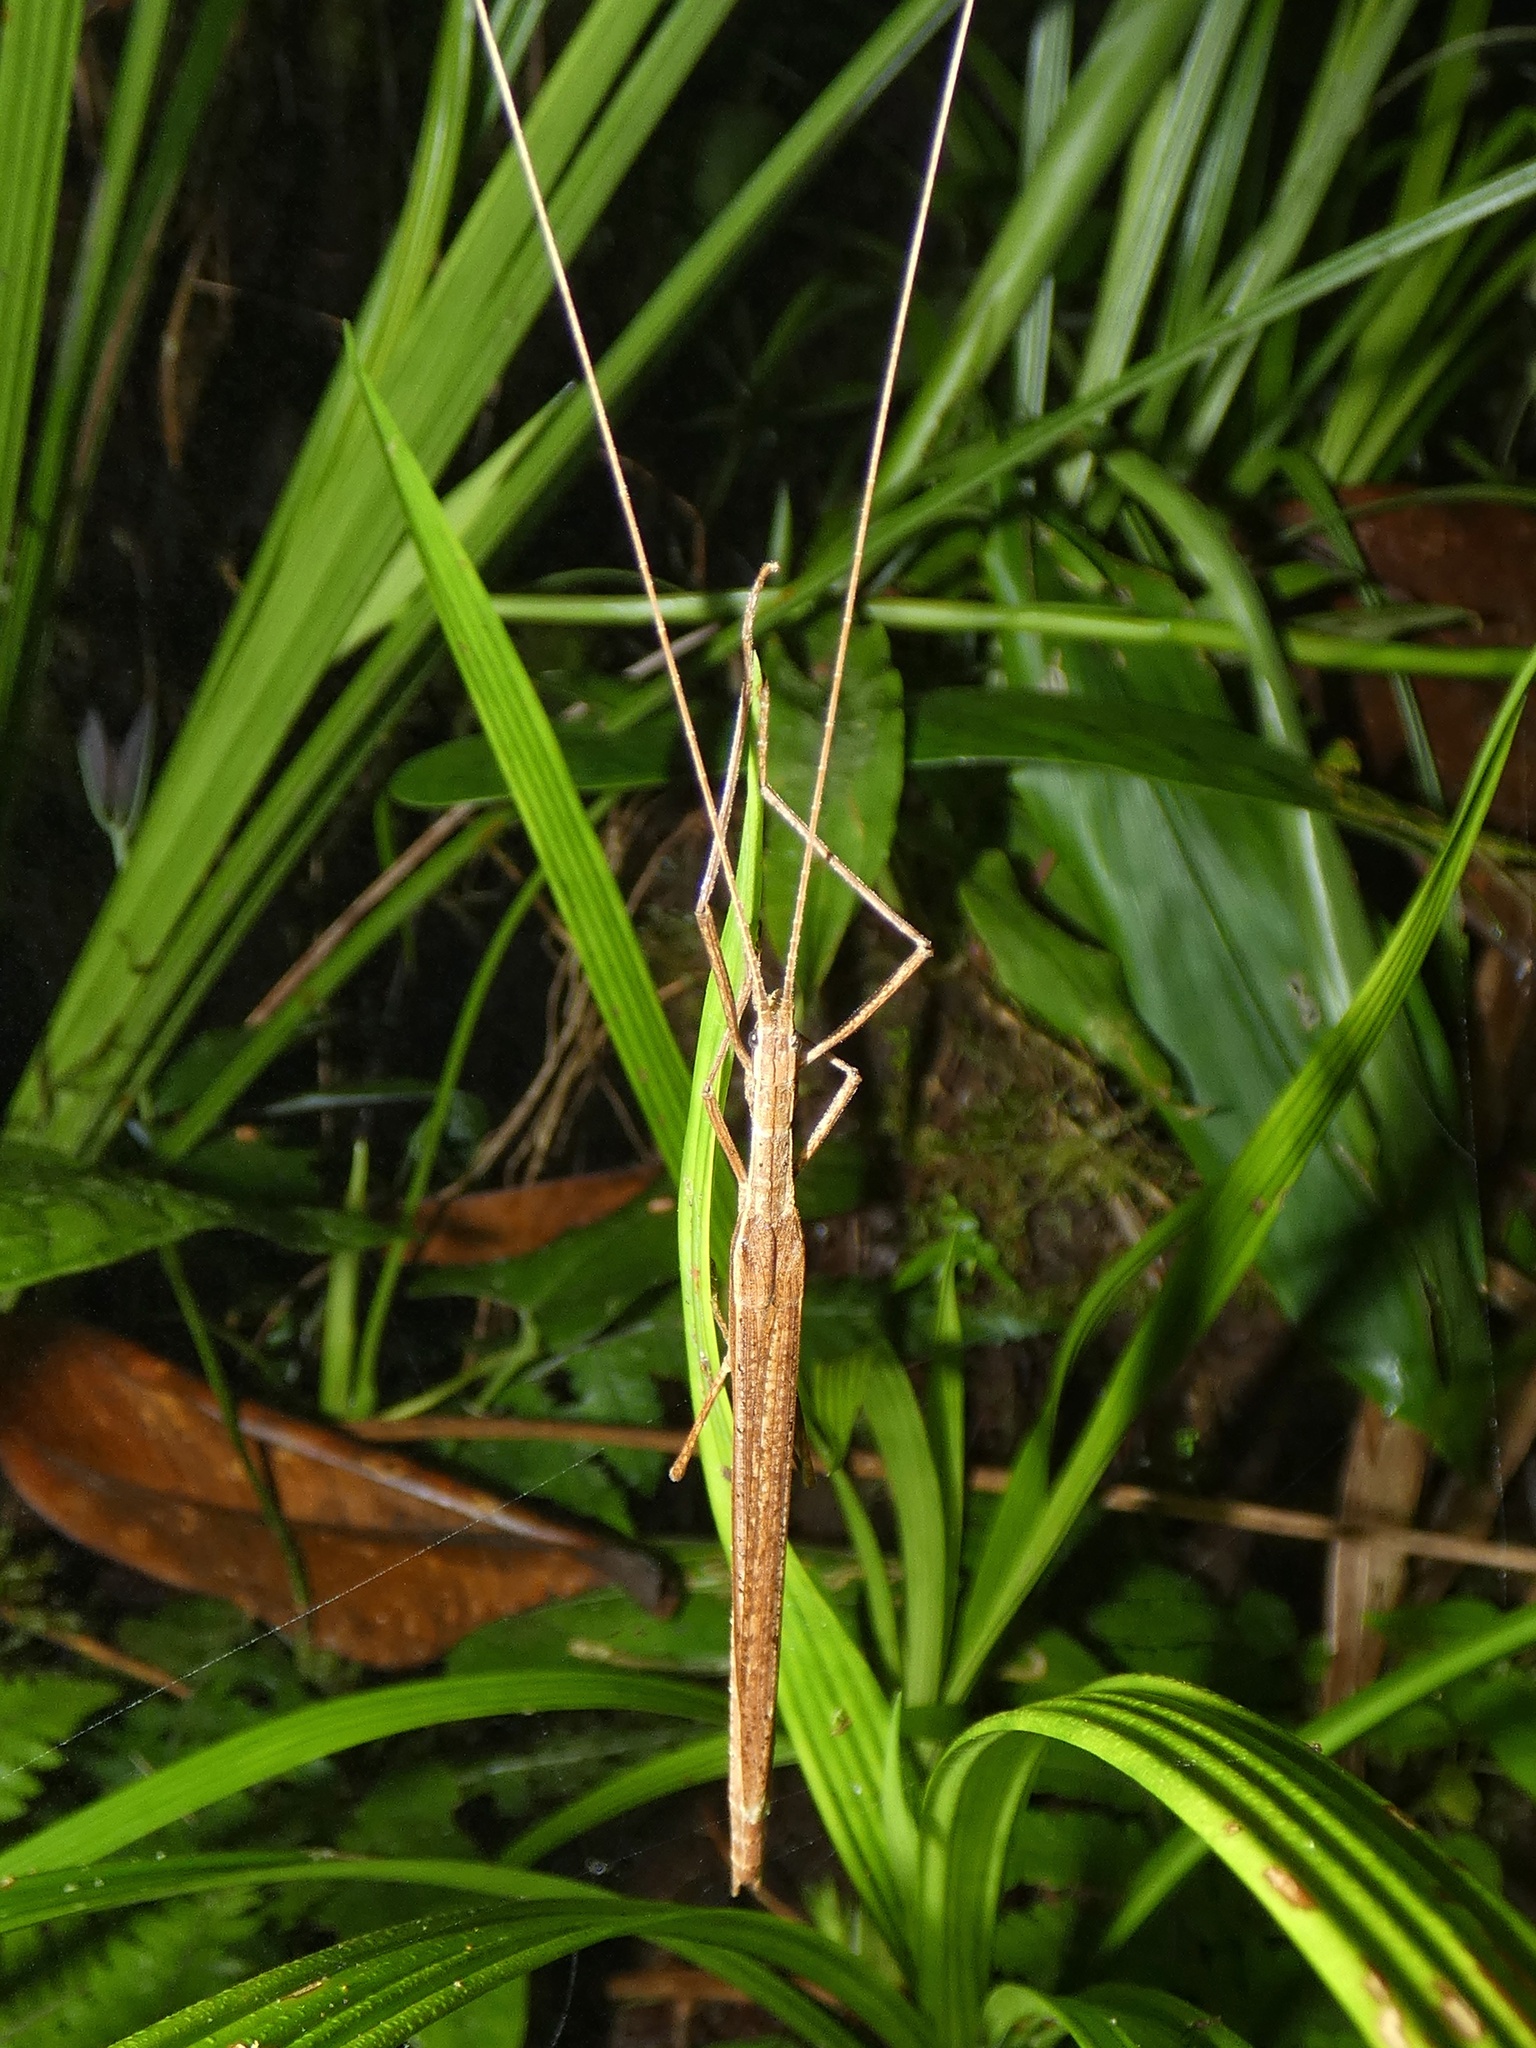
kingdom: Animalia
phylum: Arthropoda
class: Insecta
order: Phasmida
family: Pseudophasmatidae
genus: Holca
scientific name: Holca proxima
